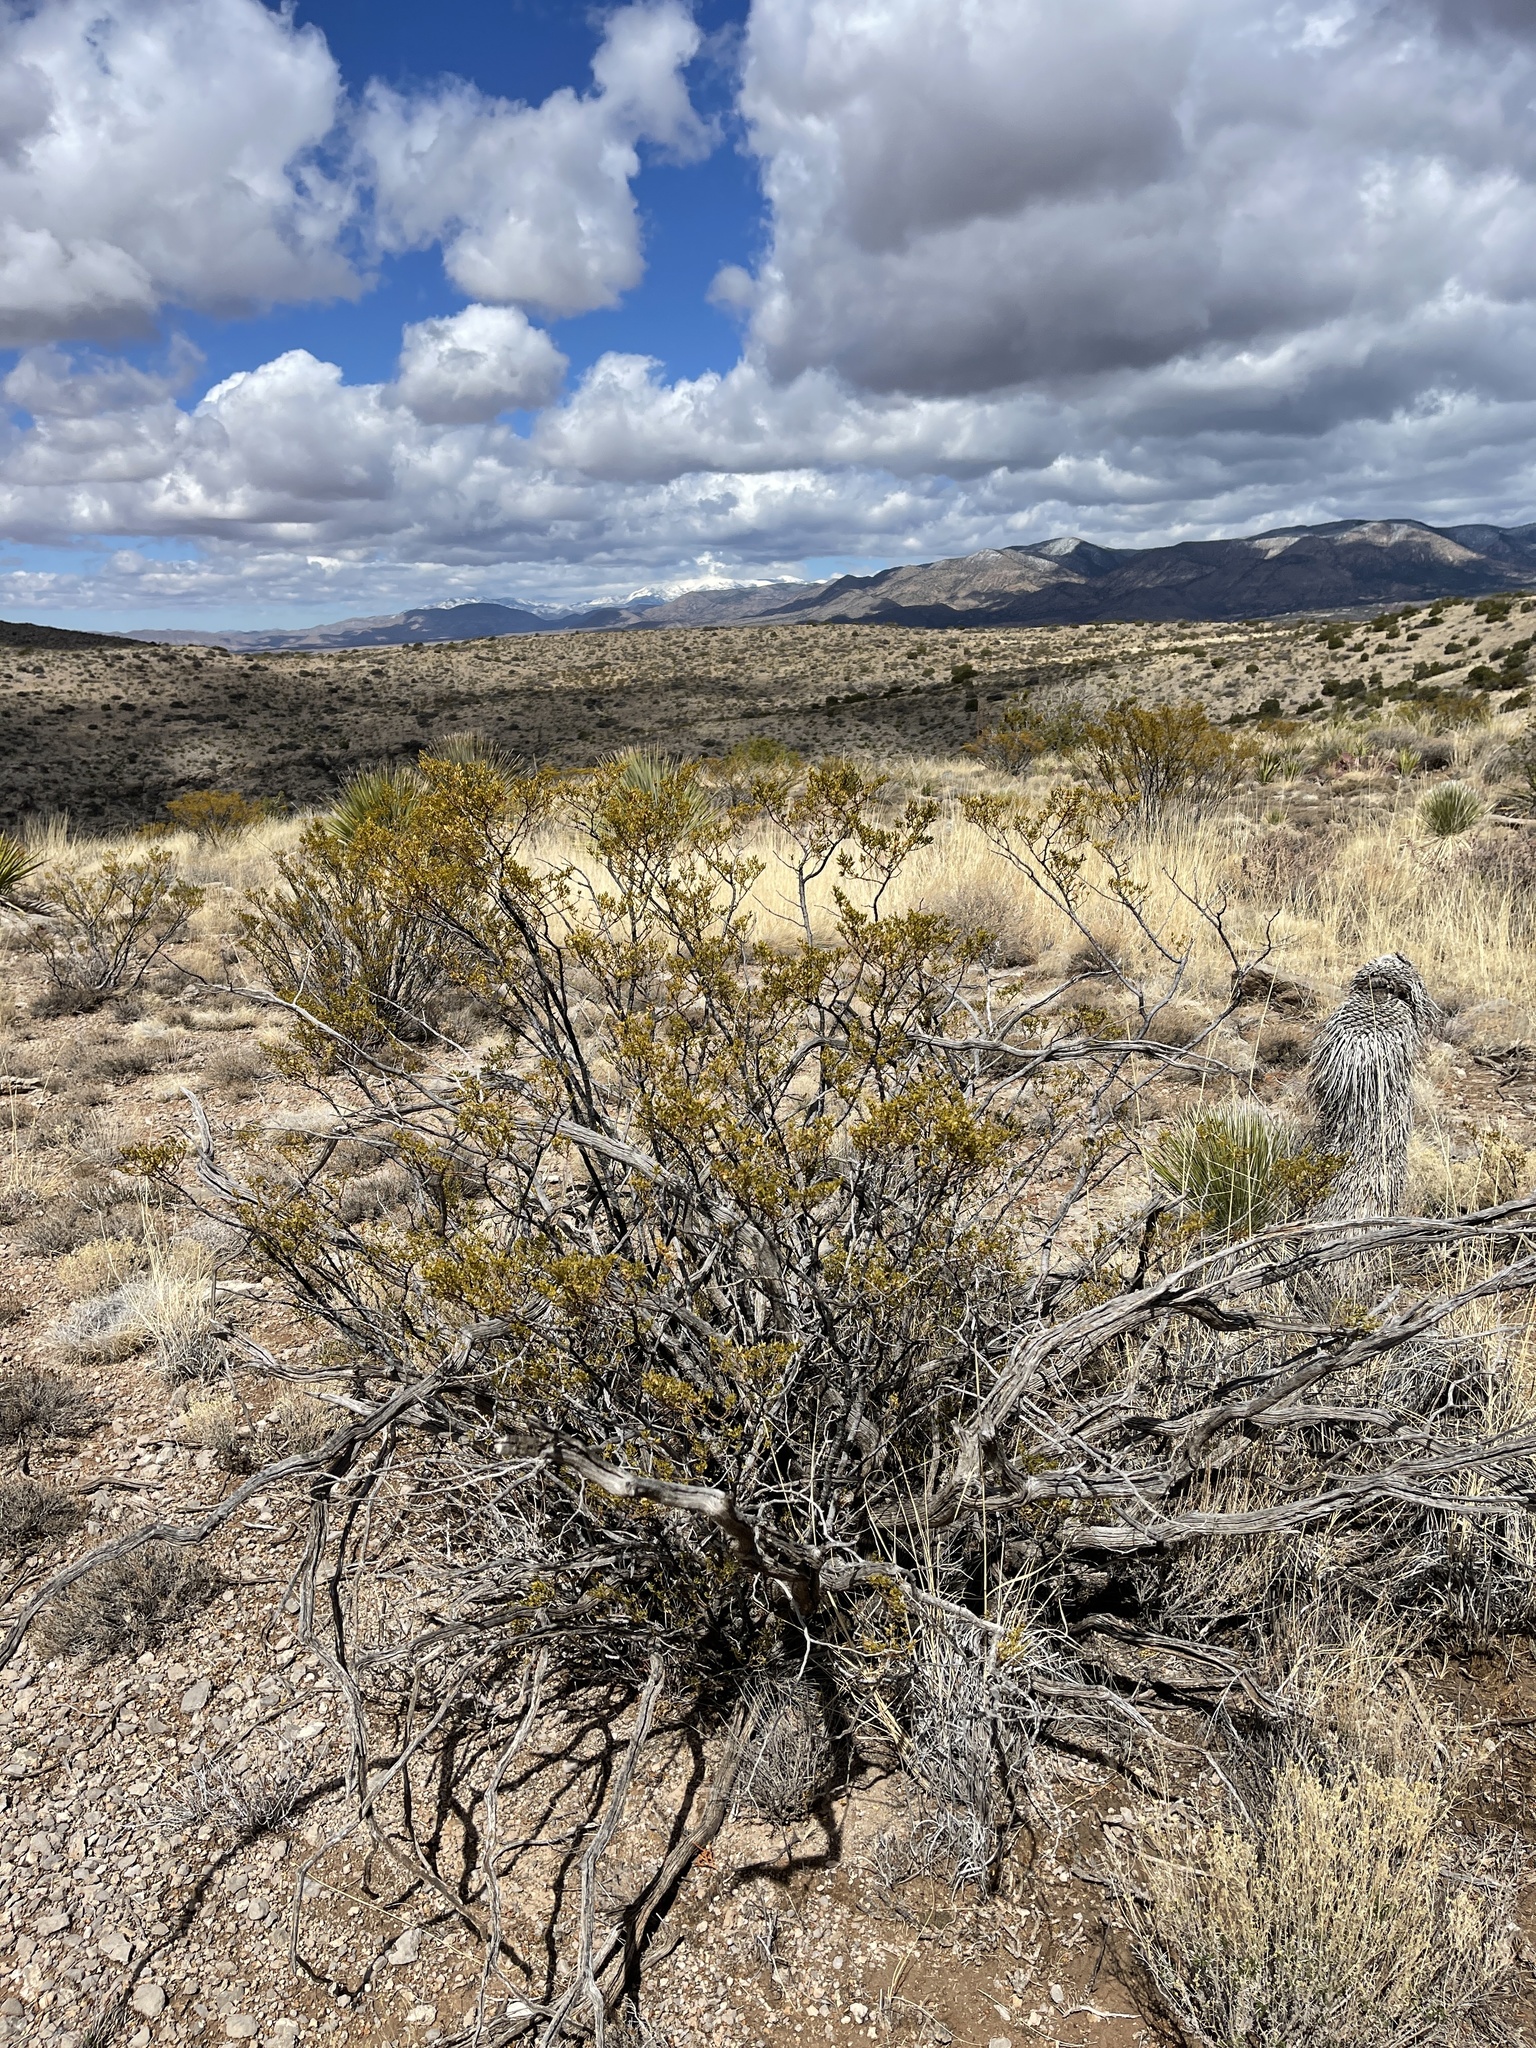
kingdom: Plantae
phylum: Tracheophyta
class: Magnoliopsida
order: Zygophyllales
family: Zygophyllaceae
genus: Larrea
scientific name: Larrea tridentata
